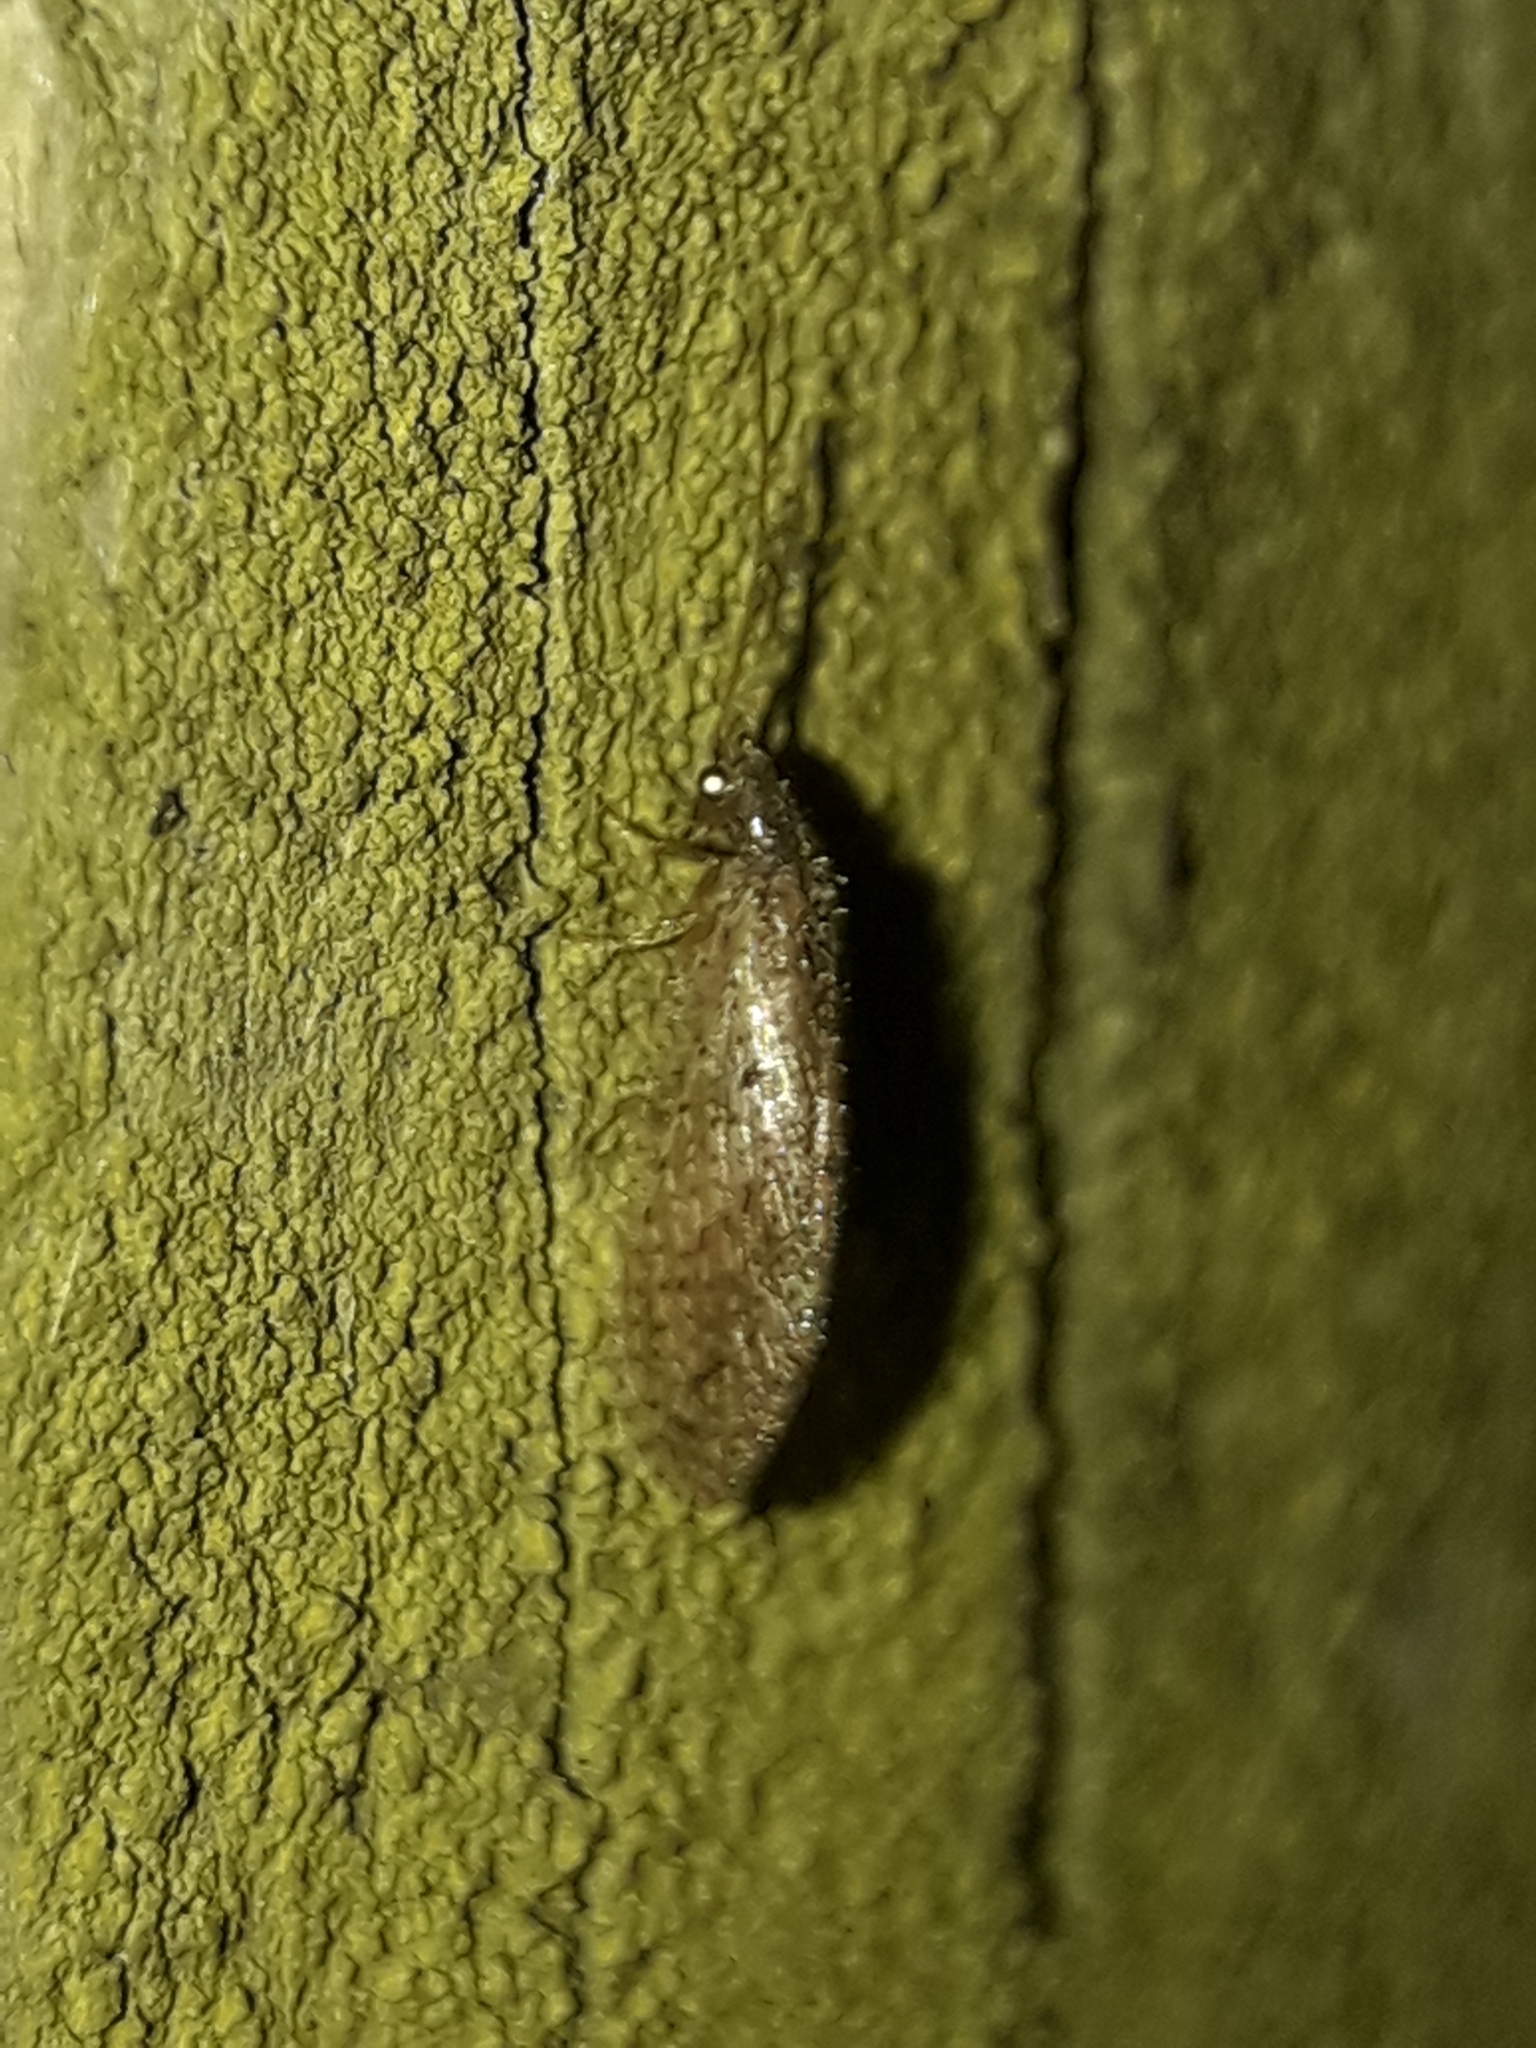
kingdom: Animalia
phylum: Arthropoda
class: Insecta
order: Neuroptera
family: Hemerobiidae
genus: Micromus
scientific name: Micromus tasmaniae
